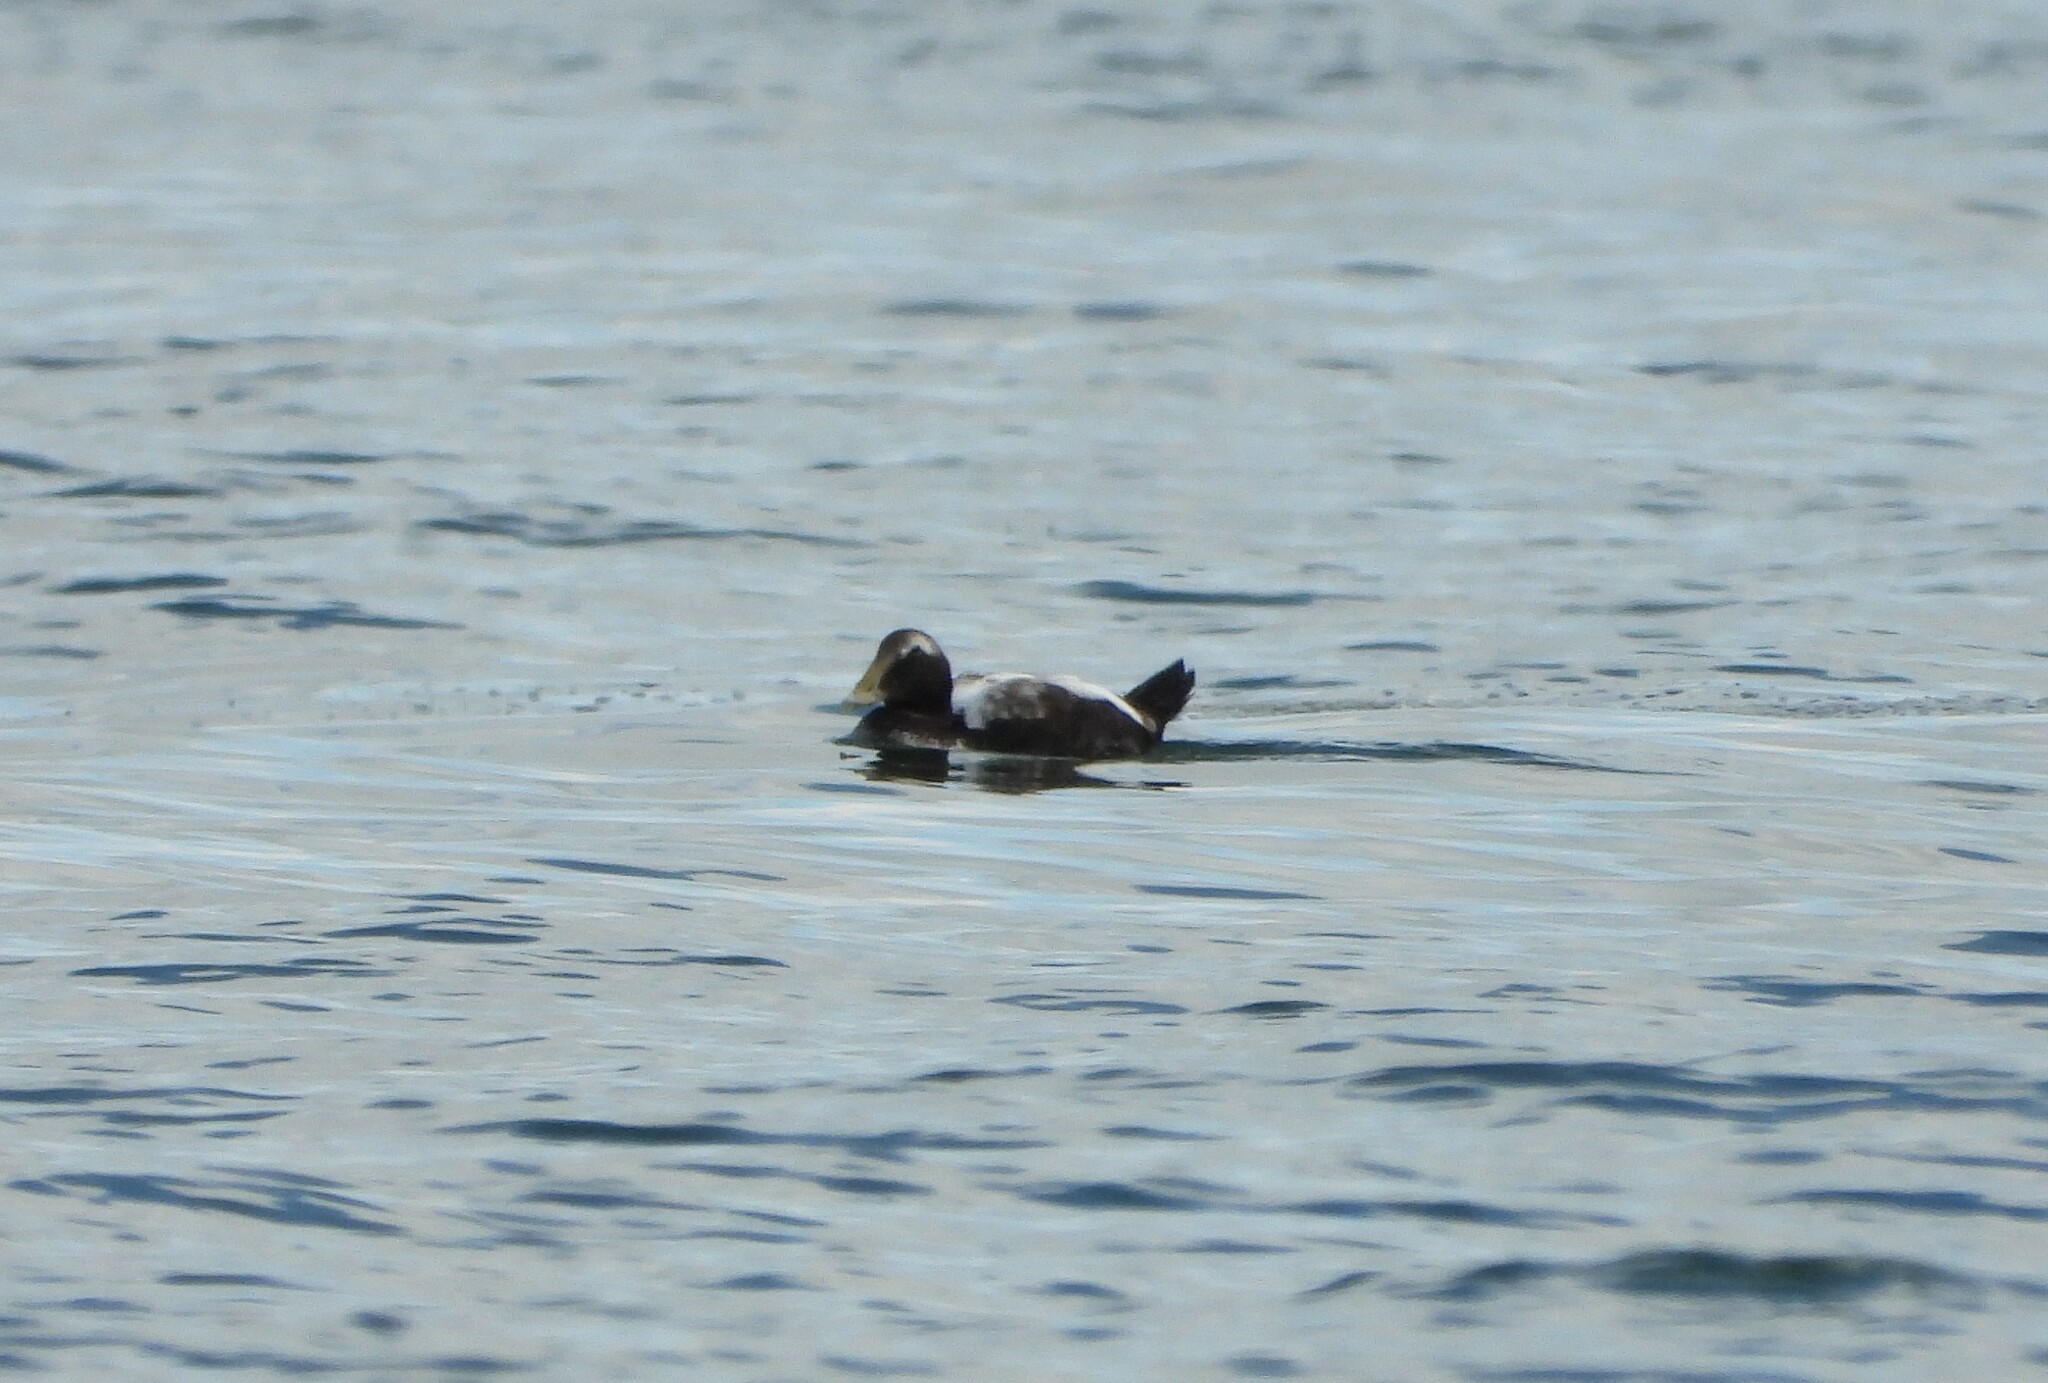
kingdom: Animalia
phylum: Chordata
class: Aves
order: Anseriformes
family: Anatidae
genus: Somateria
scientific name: Somateria mollissima
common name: Common eider
